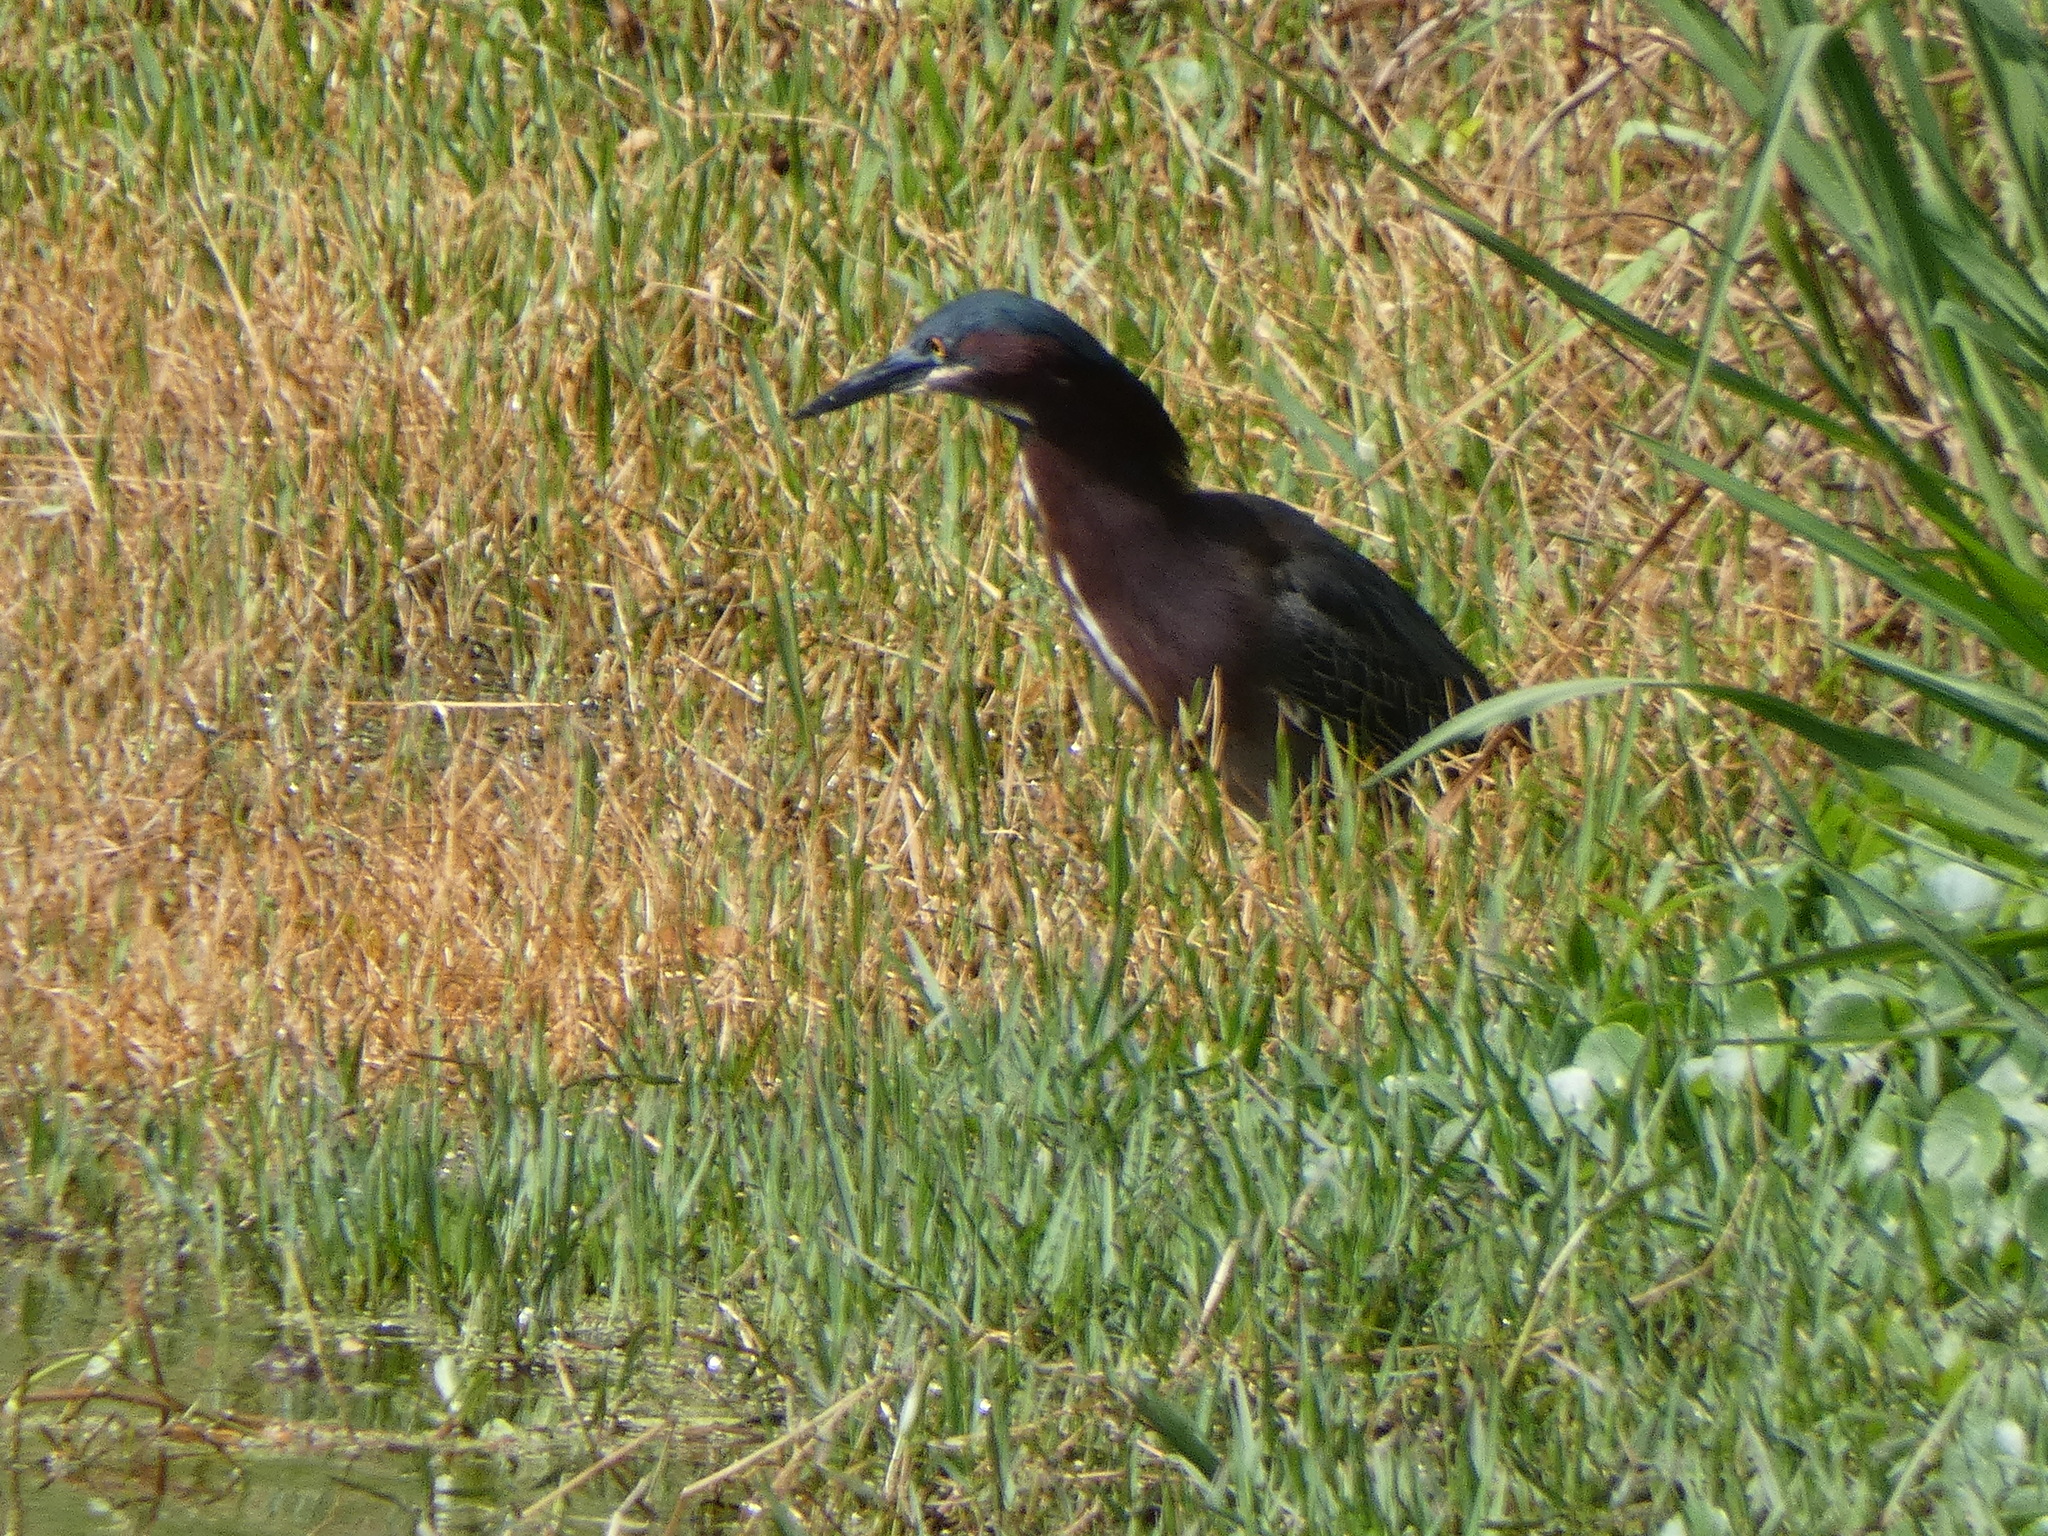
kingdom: Animalia
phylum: Chordata
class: Aves
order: Pelecaniformes
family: Ardeidae
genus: Butorides
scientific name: Butorides virescens
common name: Green heron
